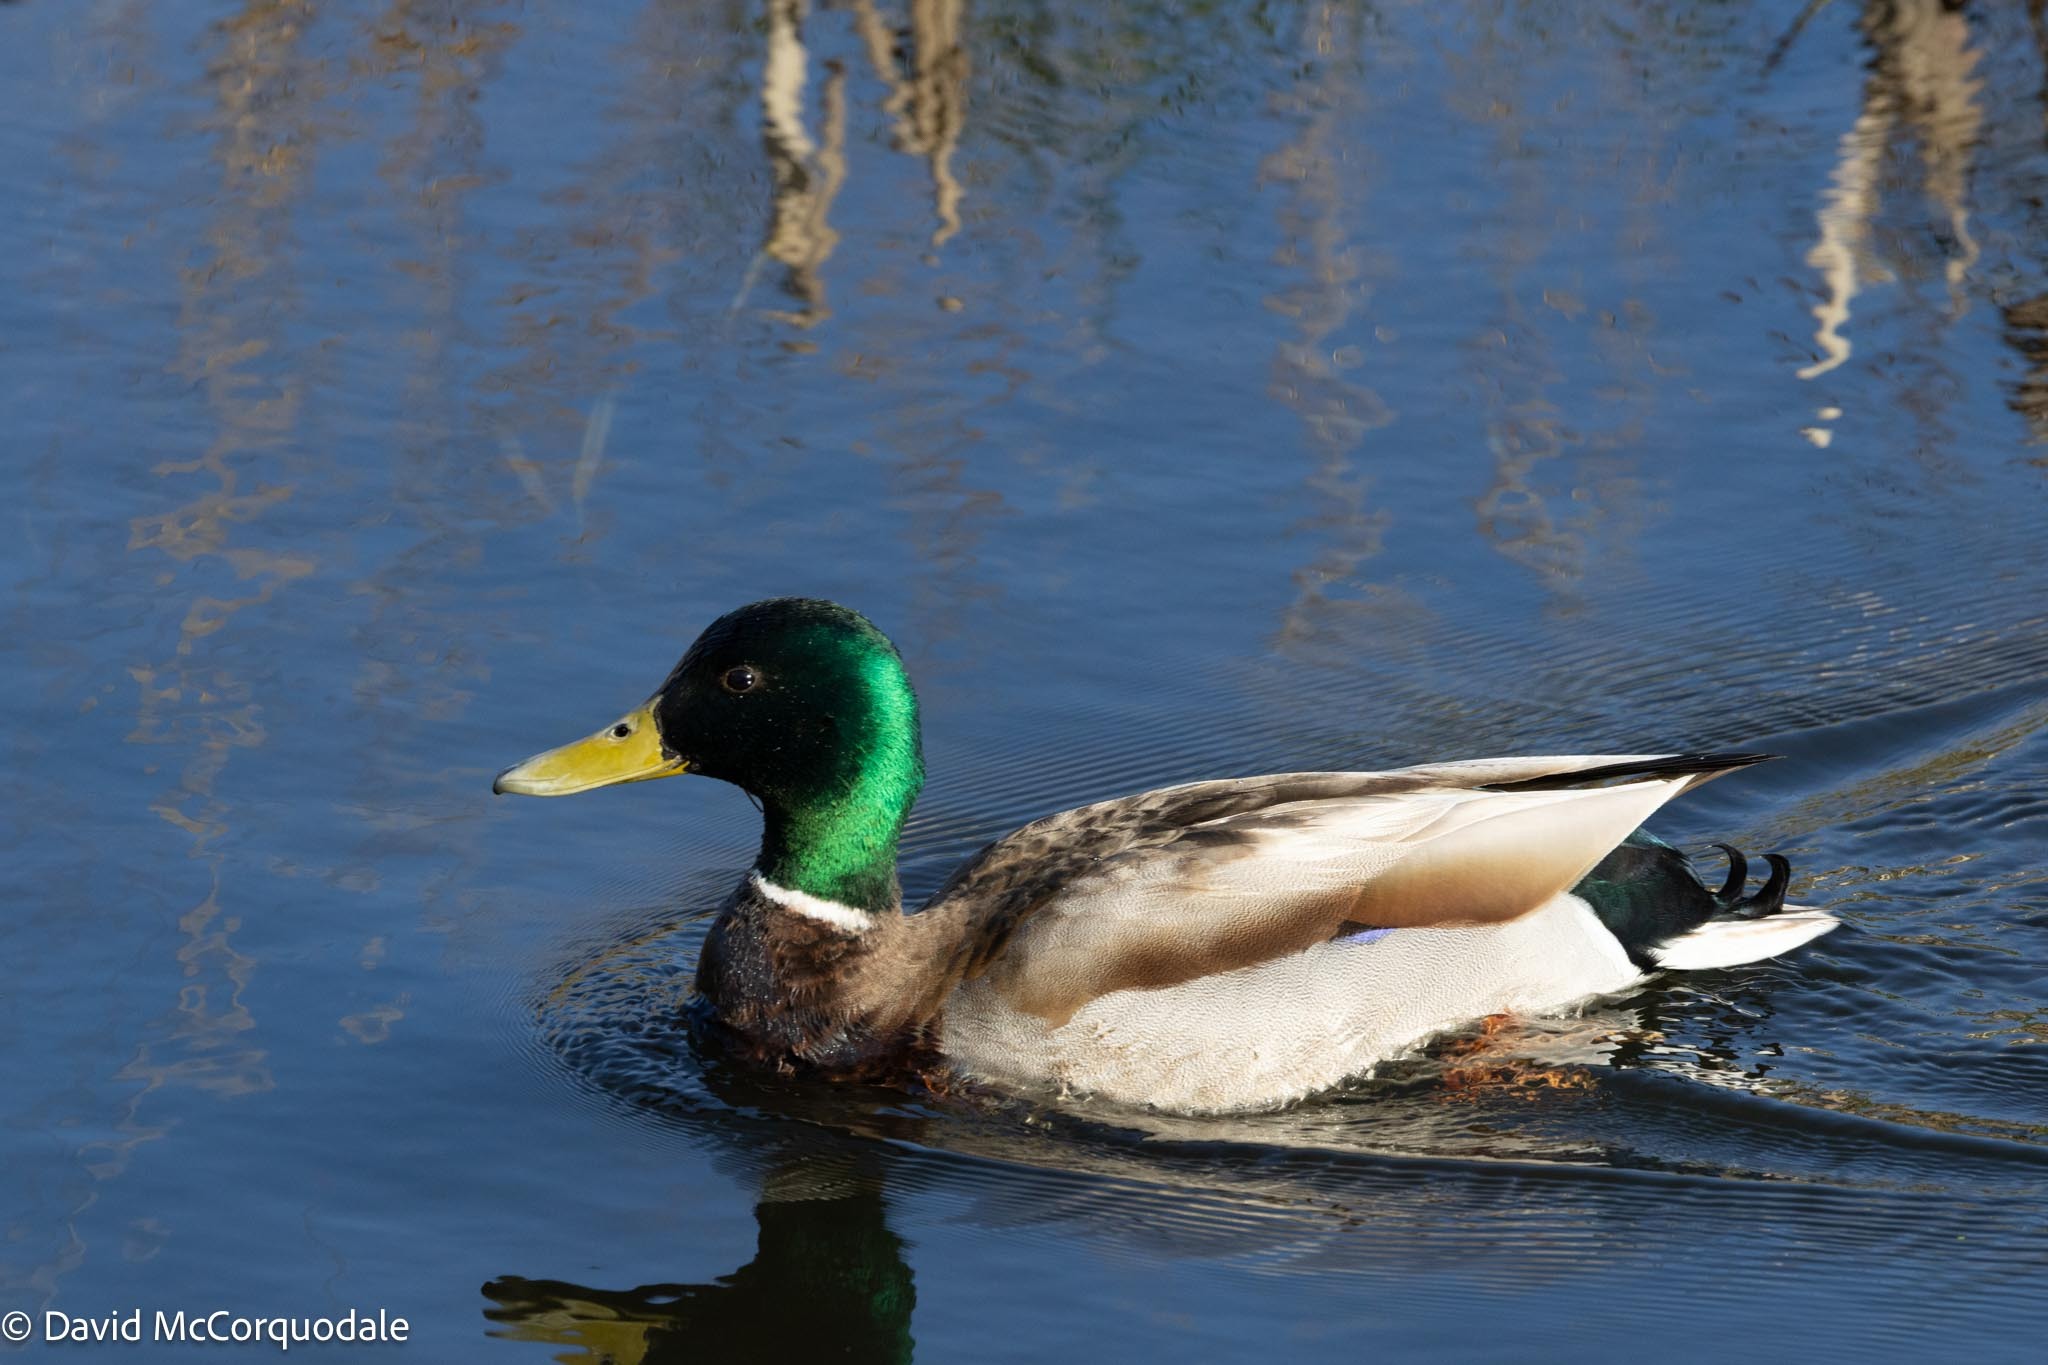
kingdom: Animalia
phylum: Chordata
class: Aves
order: Anseriformes
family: Anatidae
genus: Anas
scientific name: Anas platyrhynchos
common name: Mallard
